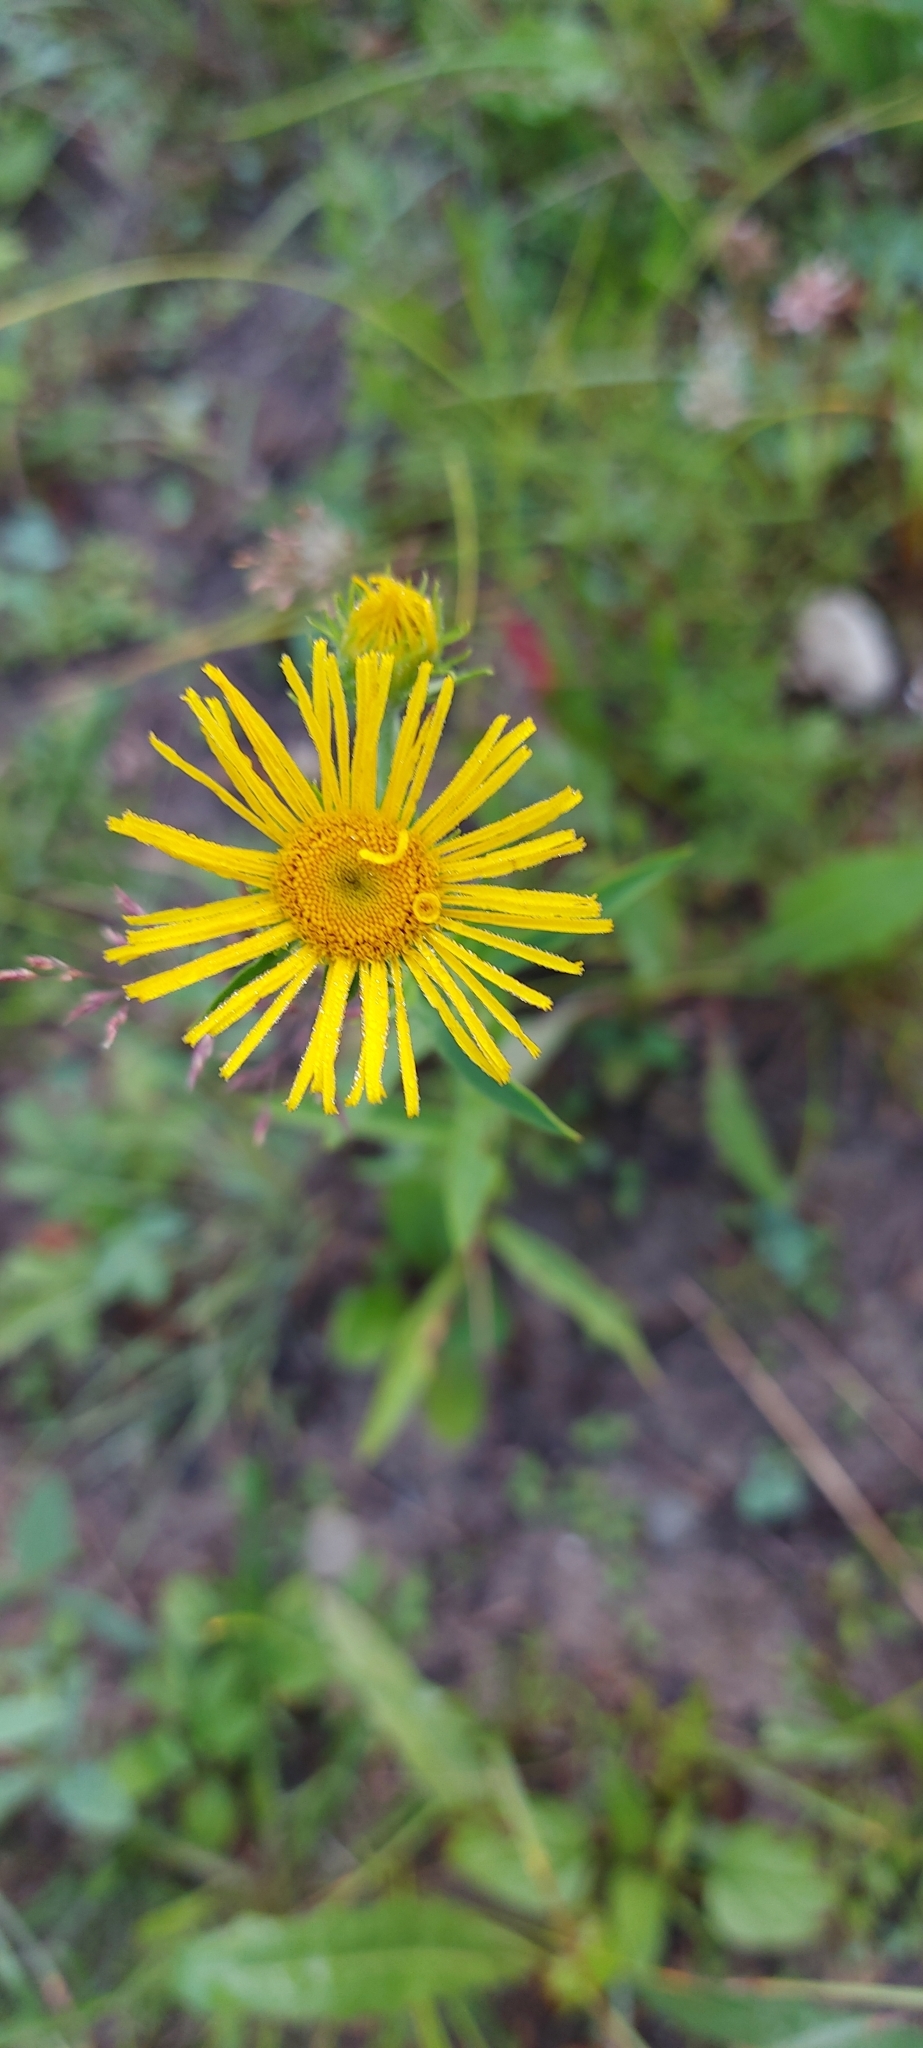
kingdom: Plantae
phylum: Tracheophyta
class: Magnoliopsida
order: Asterales
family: Asteraceae
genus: Pentanema
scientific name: Pentanema britannicum
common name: British elecampane
